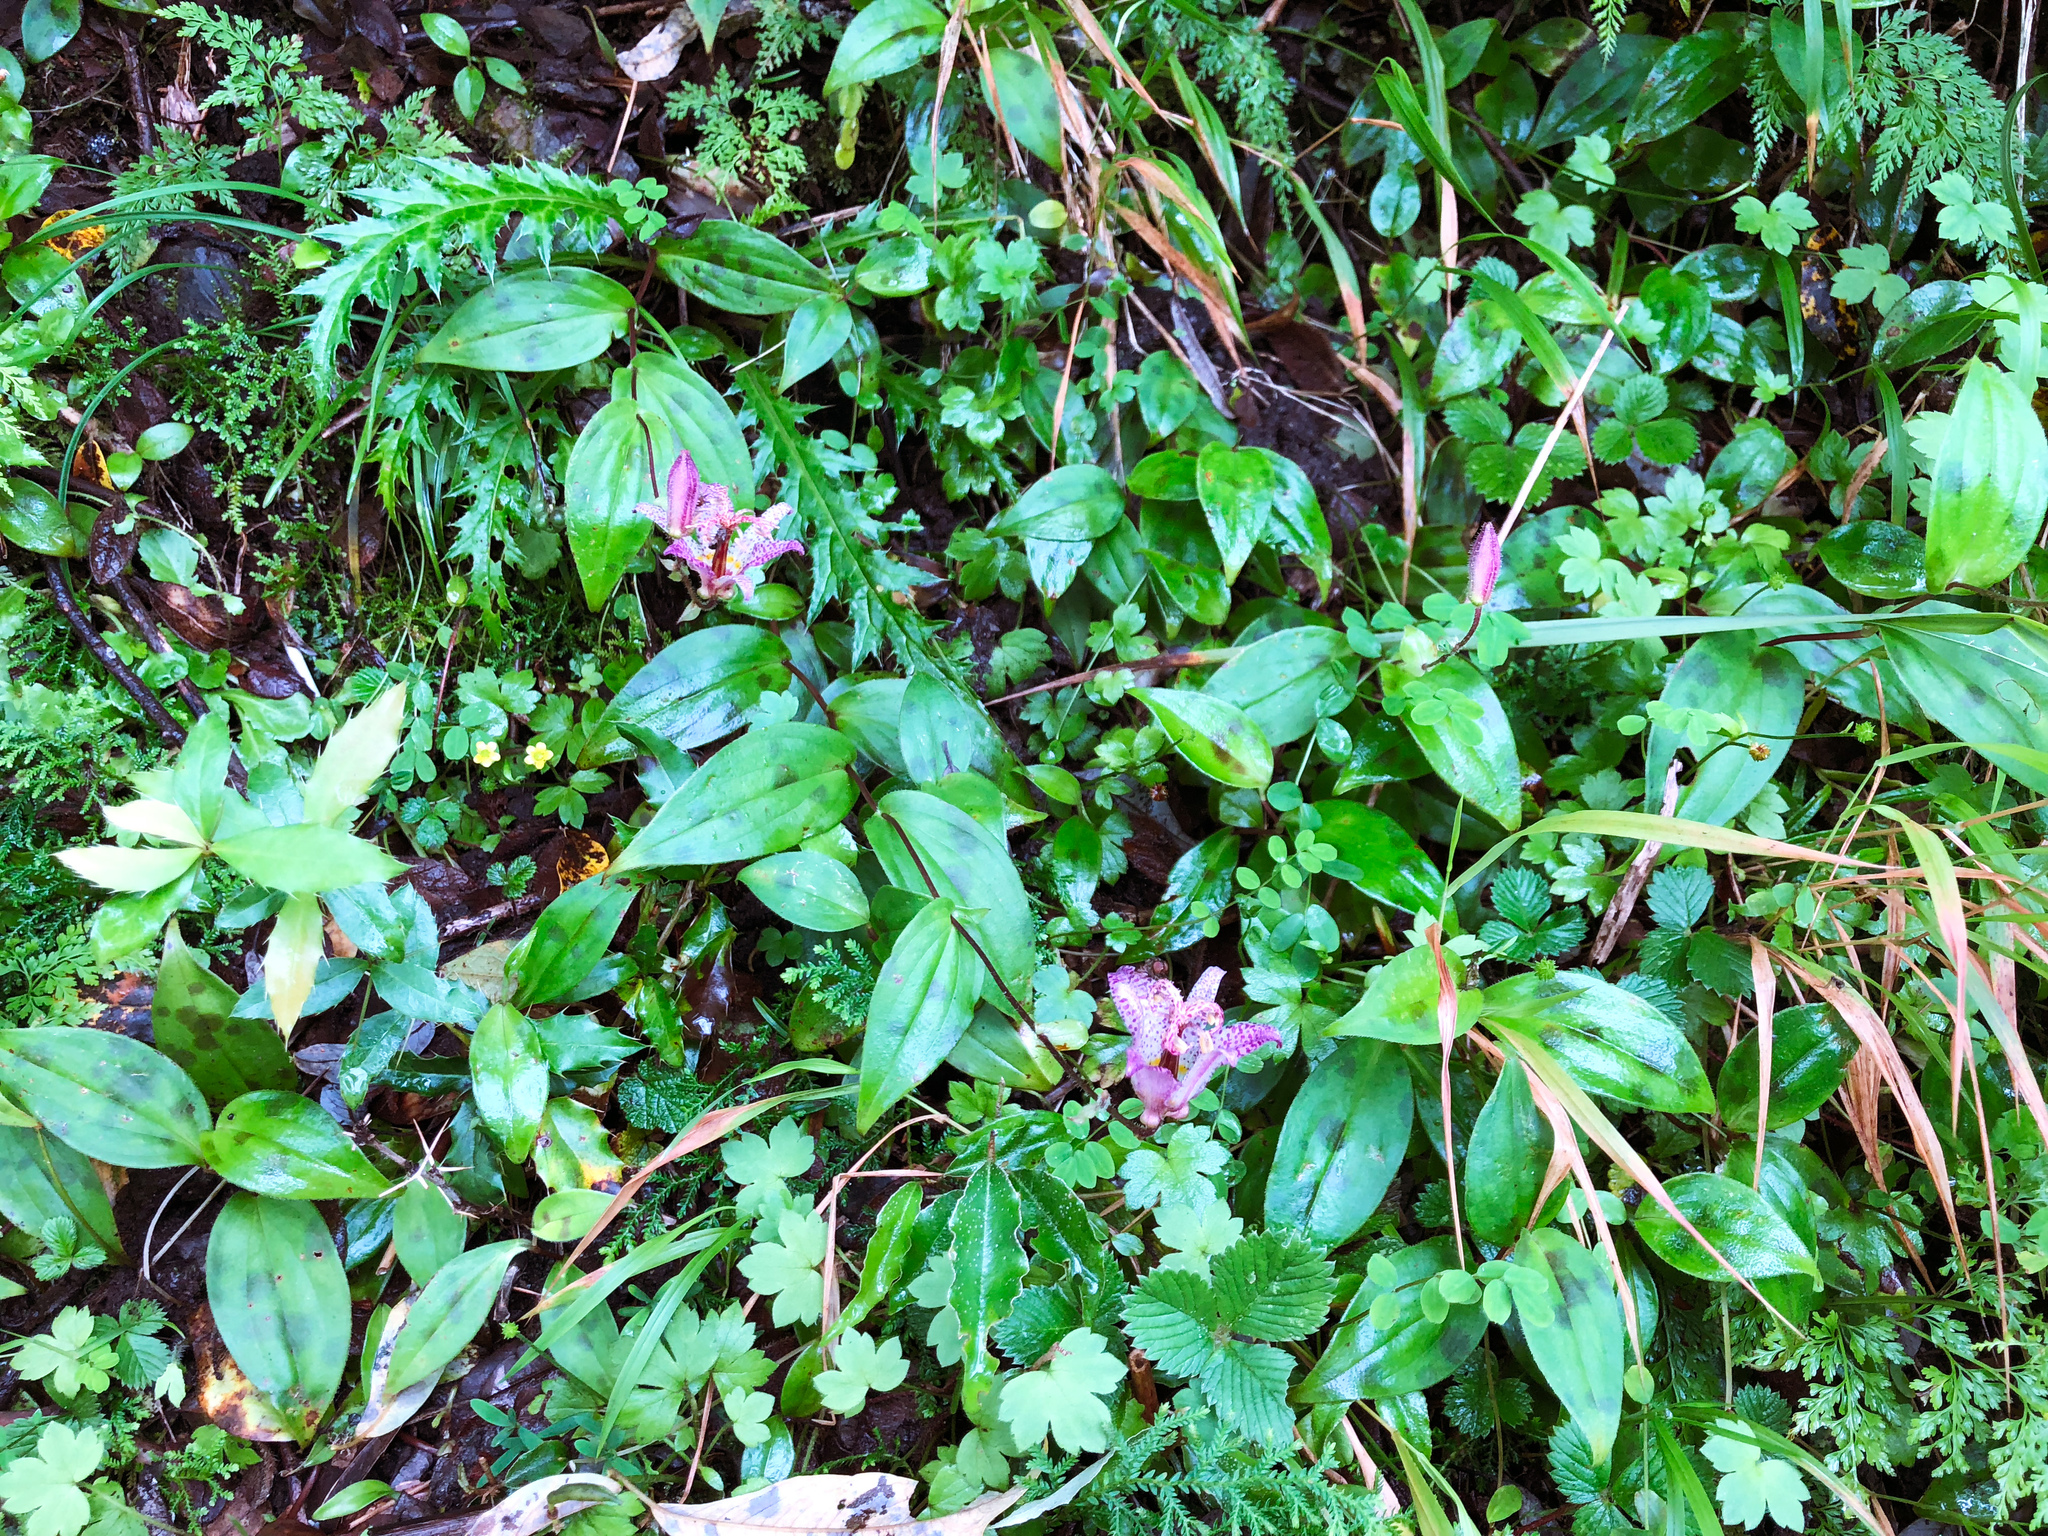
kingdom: Plantae
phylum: Tracheophyta
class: Liliopsida
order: Liliales
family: Liliaceae
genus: Tricyrtis
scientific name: Tricyrtis formosana
